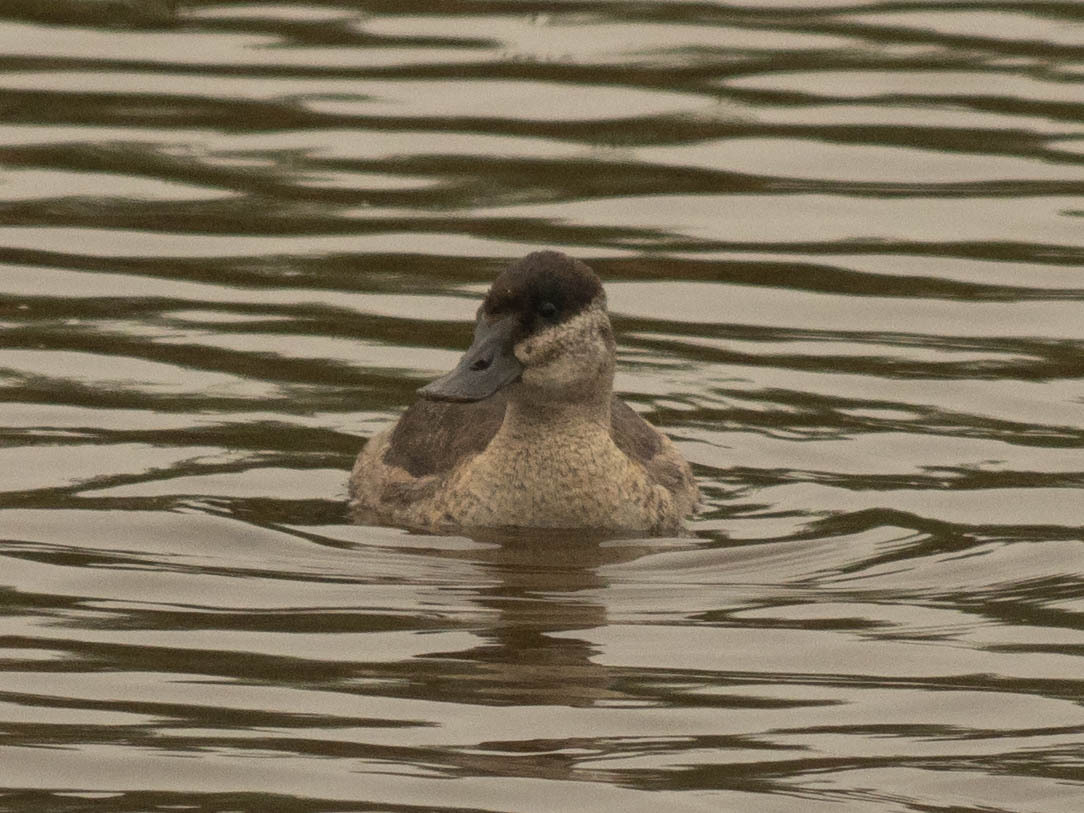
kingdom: Animalia
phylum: Chordata
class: Aves
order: Anseriformes
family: Anatidae
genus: Oxyura
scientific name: Oxyura jamaicensis
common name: Ruddy duck
